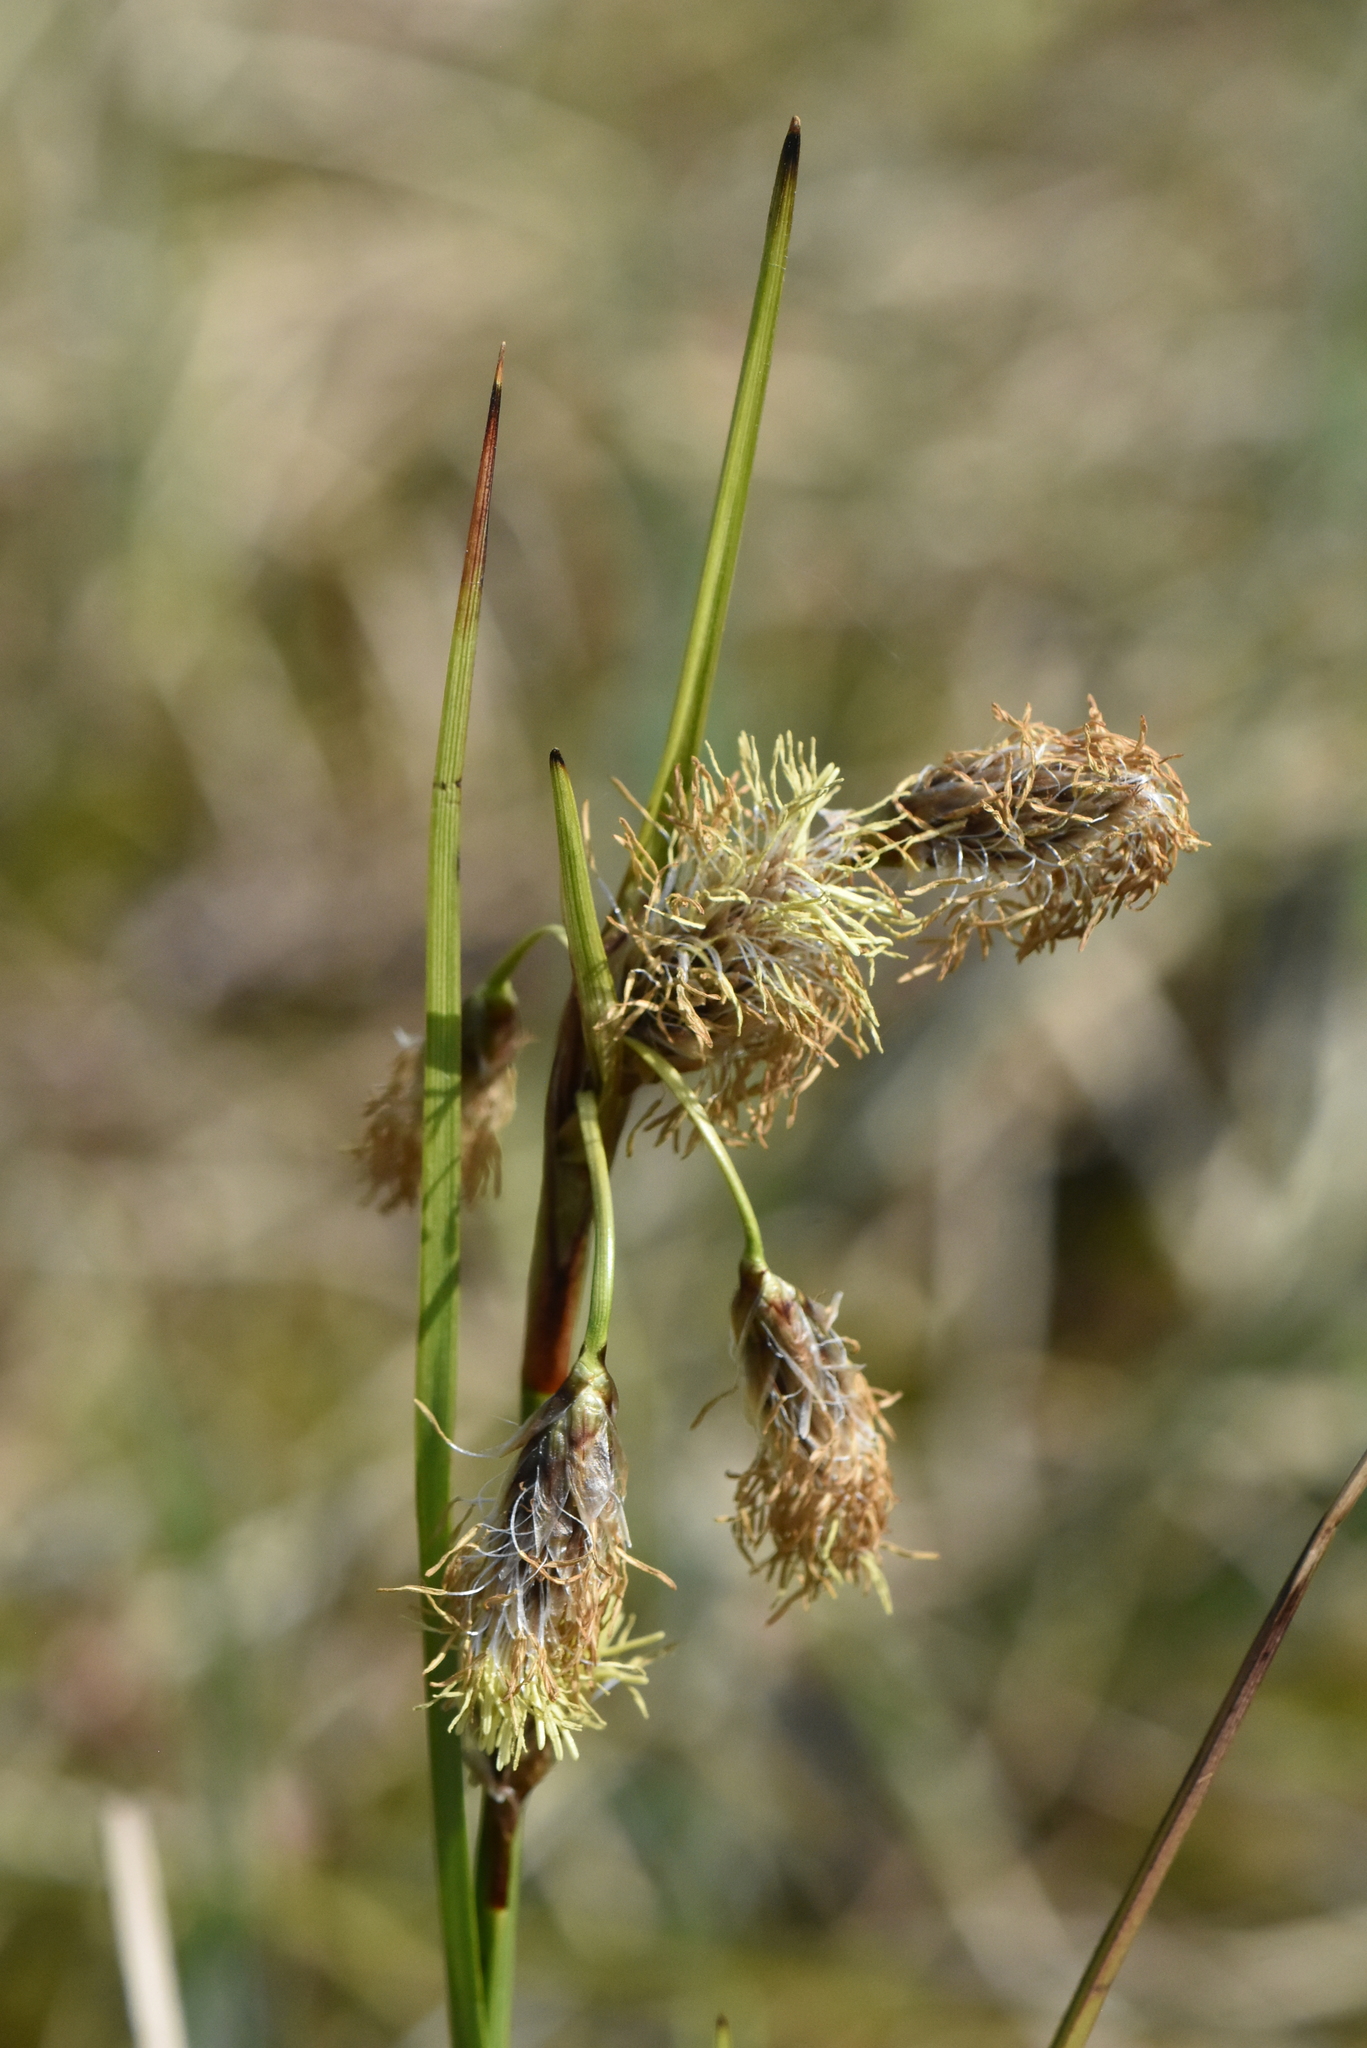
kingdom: Plantae
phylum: Tracheophyta
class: Liliopsida
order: Poales
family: Cyperaceae
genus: Eriophorum
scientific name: Eriophorum angustifolium
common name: Common cottongrass
